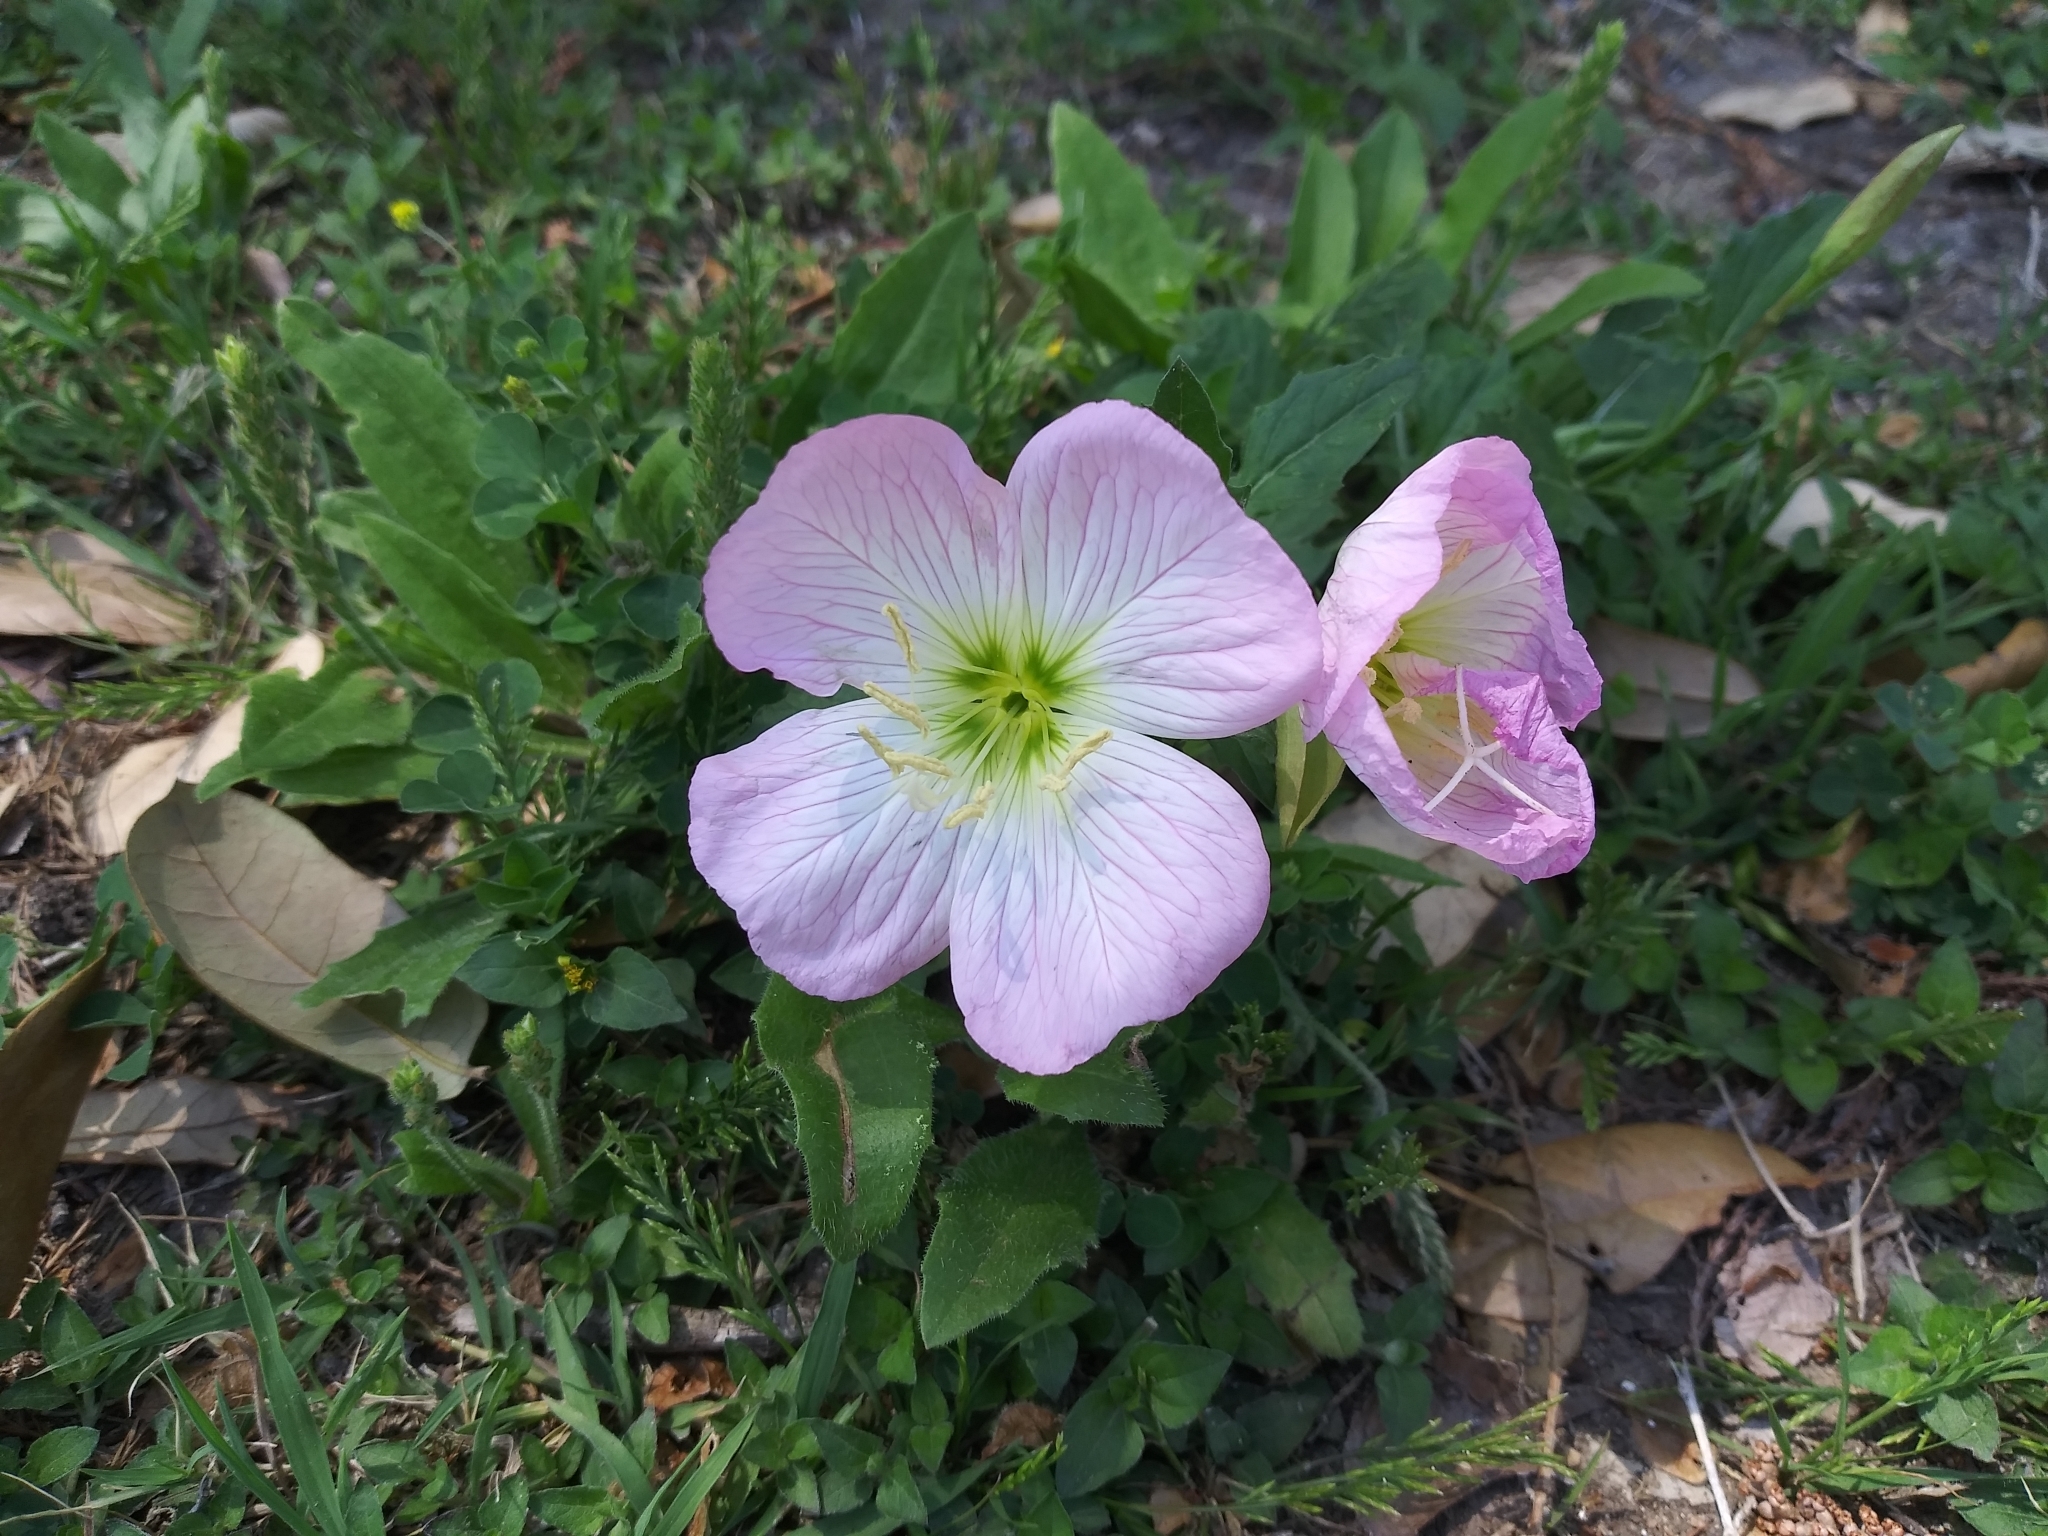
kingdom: Plantae
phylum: Tracheophyta
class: Magnoliopsida
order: Myrtales
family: Onagraceae
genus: Oenothera
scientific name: Oenothera speciosa
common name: White evening-primrose
